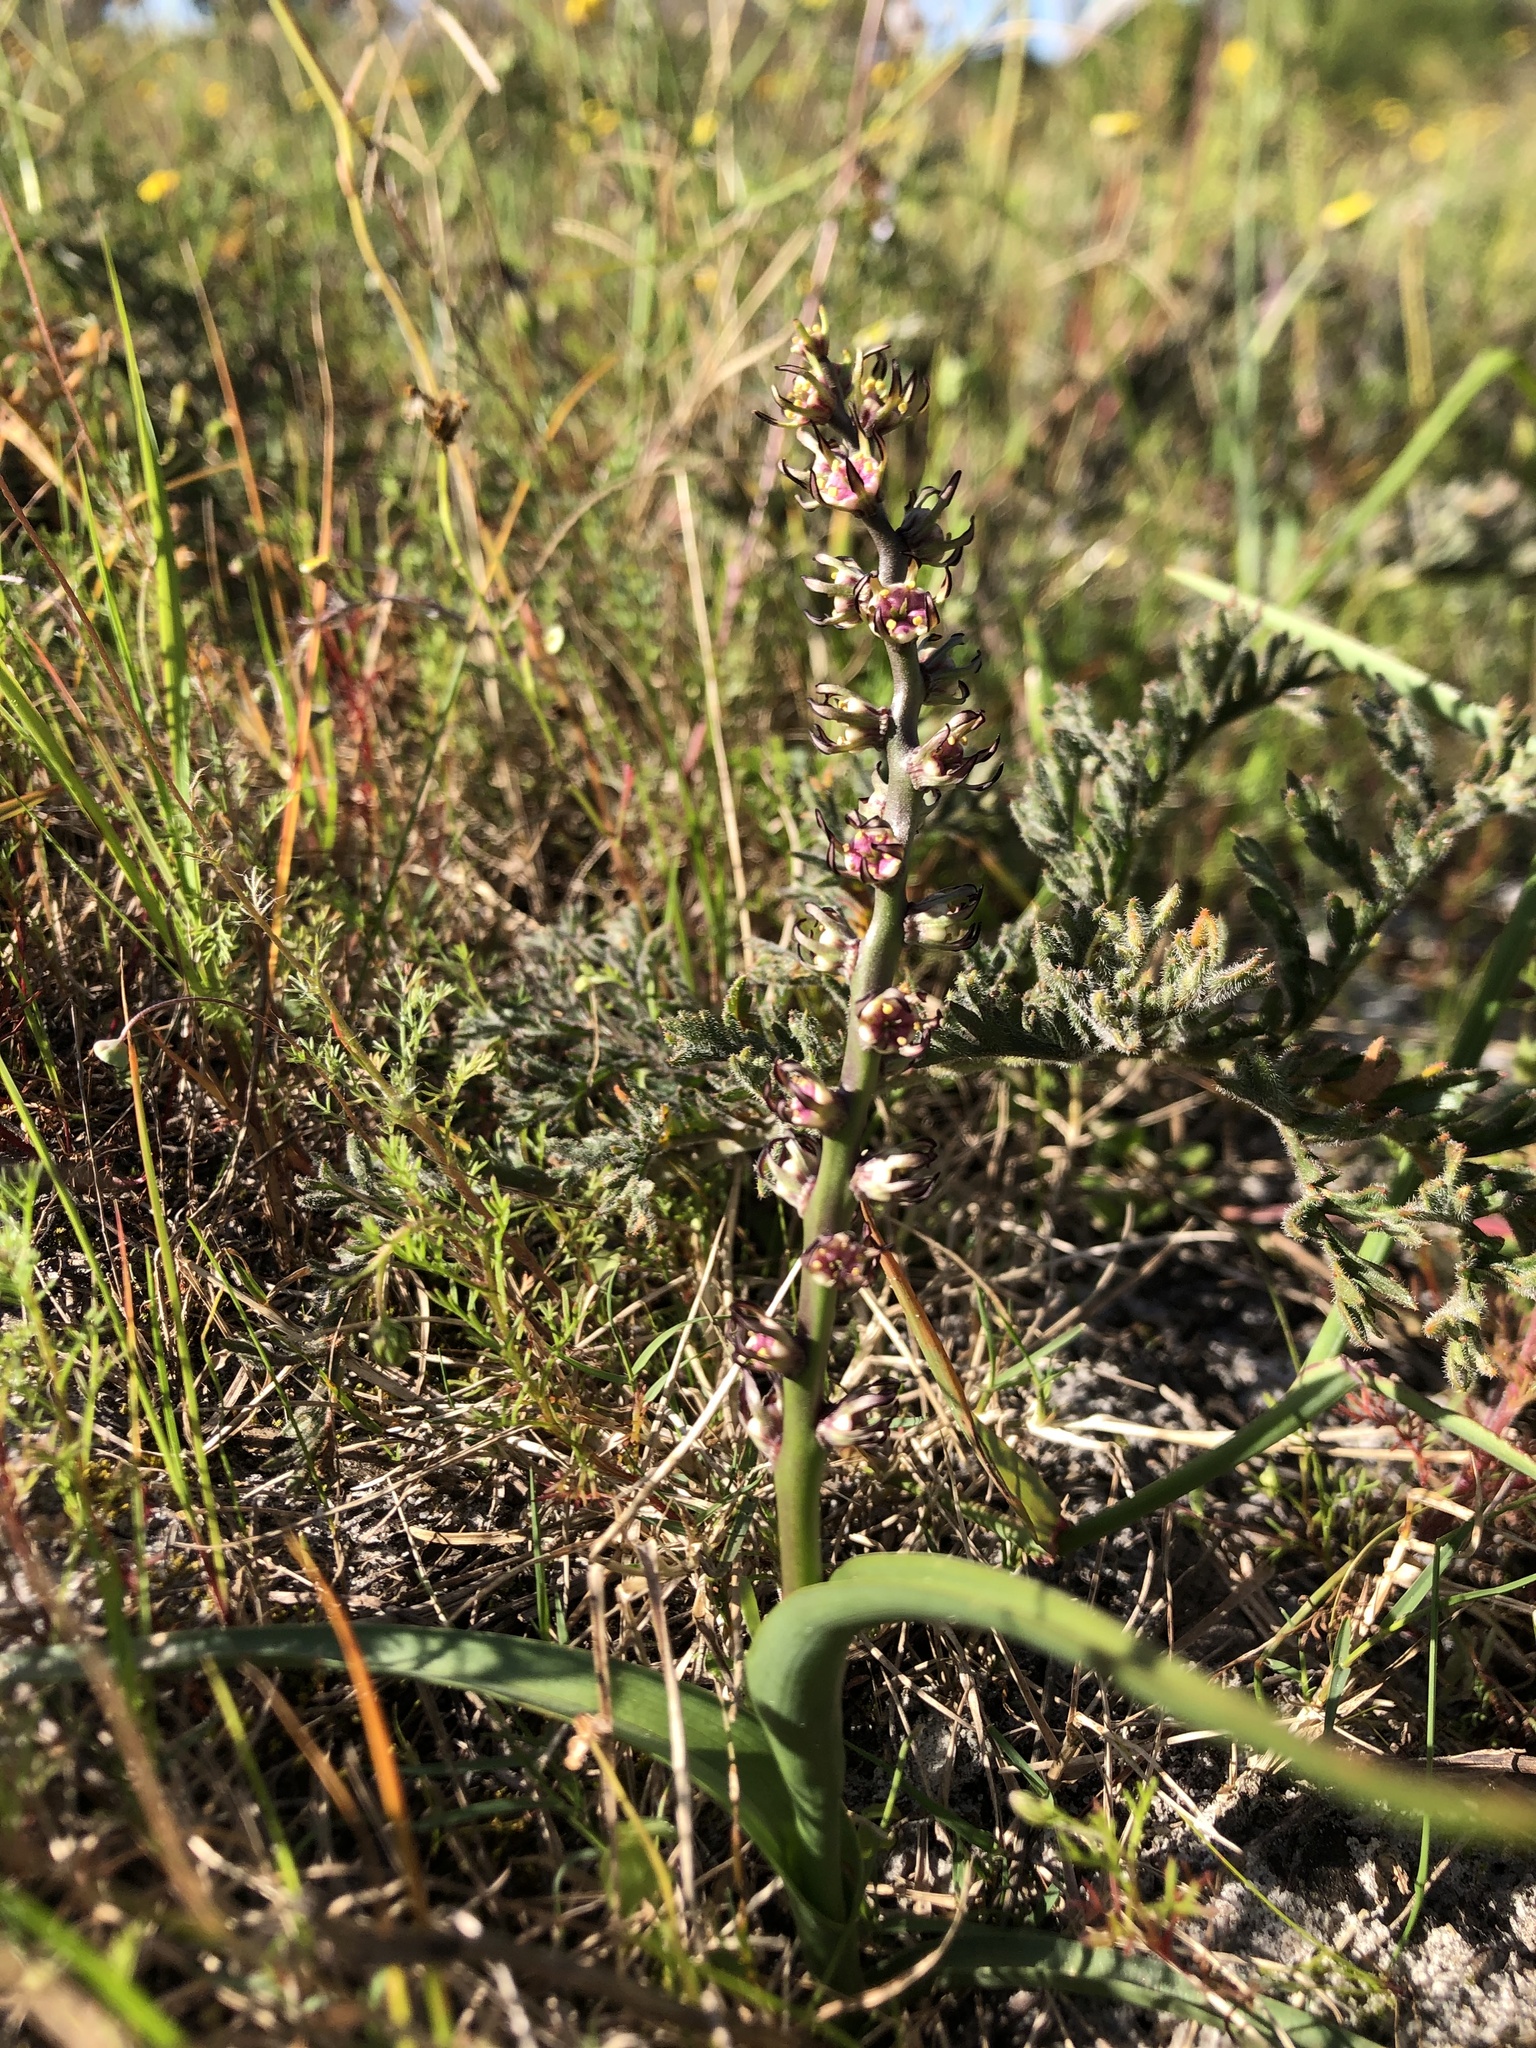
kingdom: Plantae
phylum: Tracheophyta
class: Liliopsida
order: Liliales
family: Colchicaceae
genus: Wurmbea
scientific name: Wurmbea monopetala
